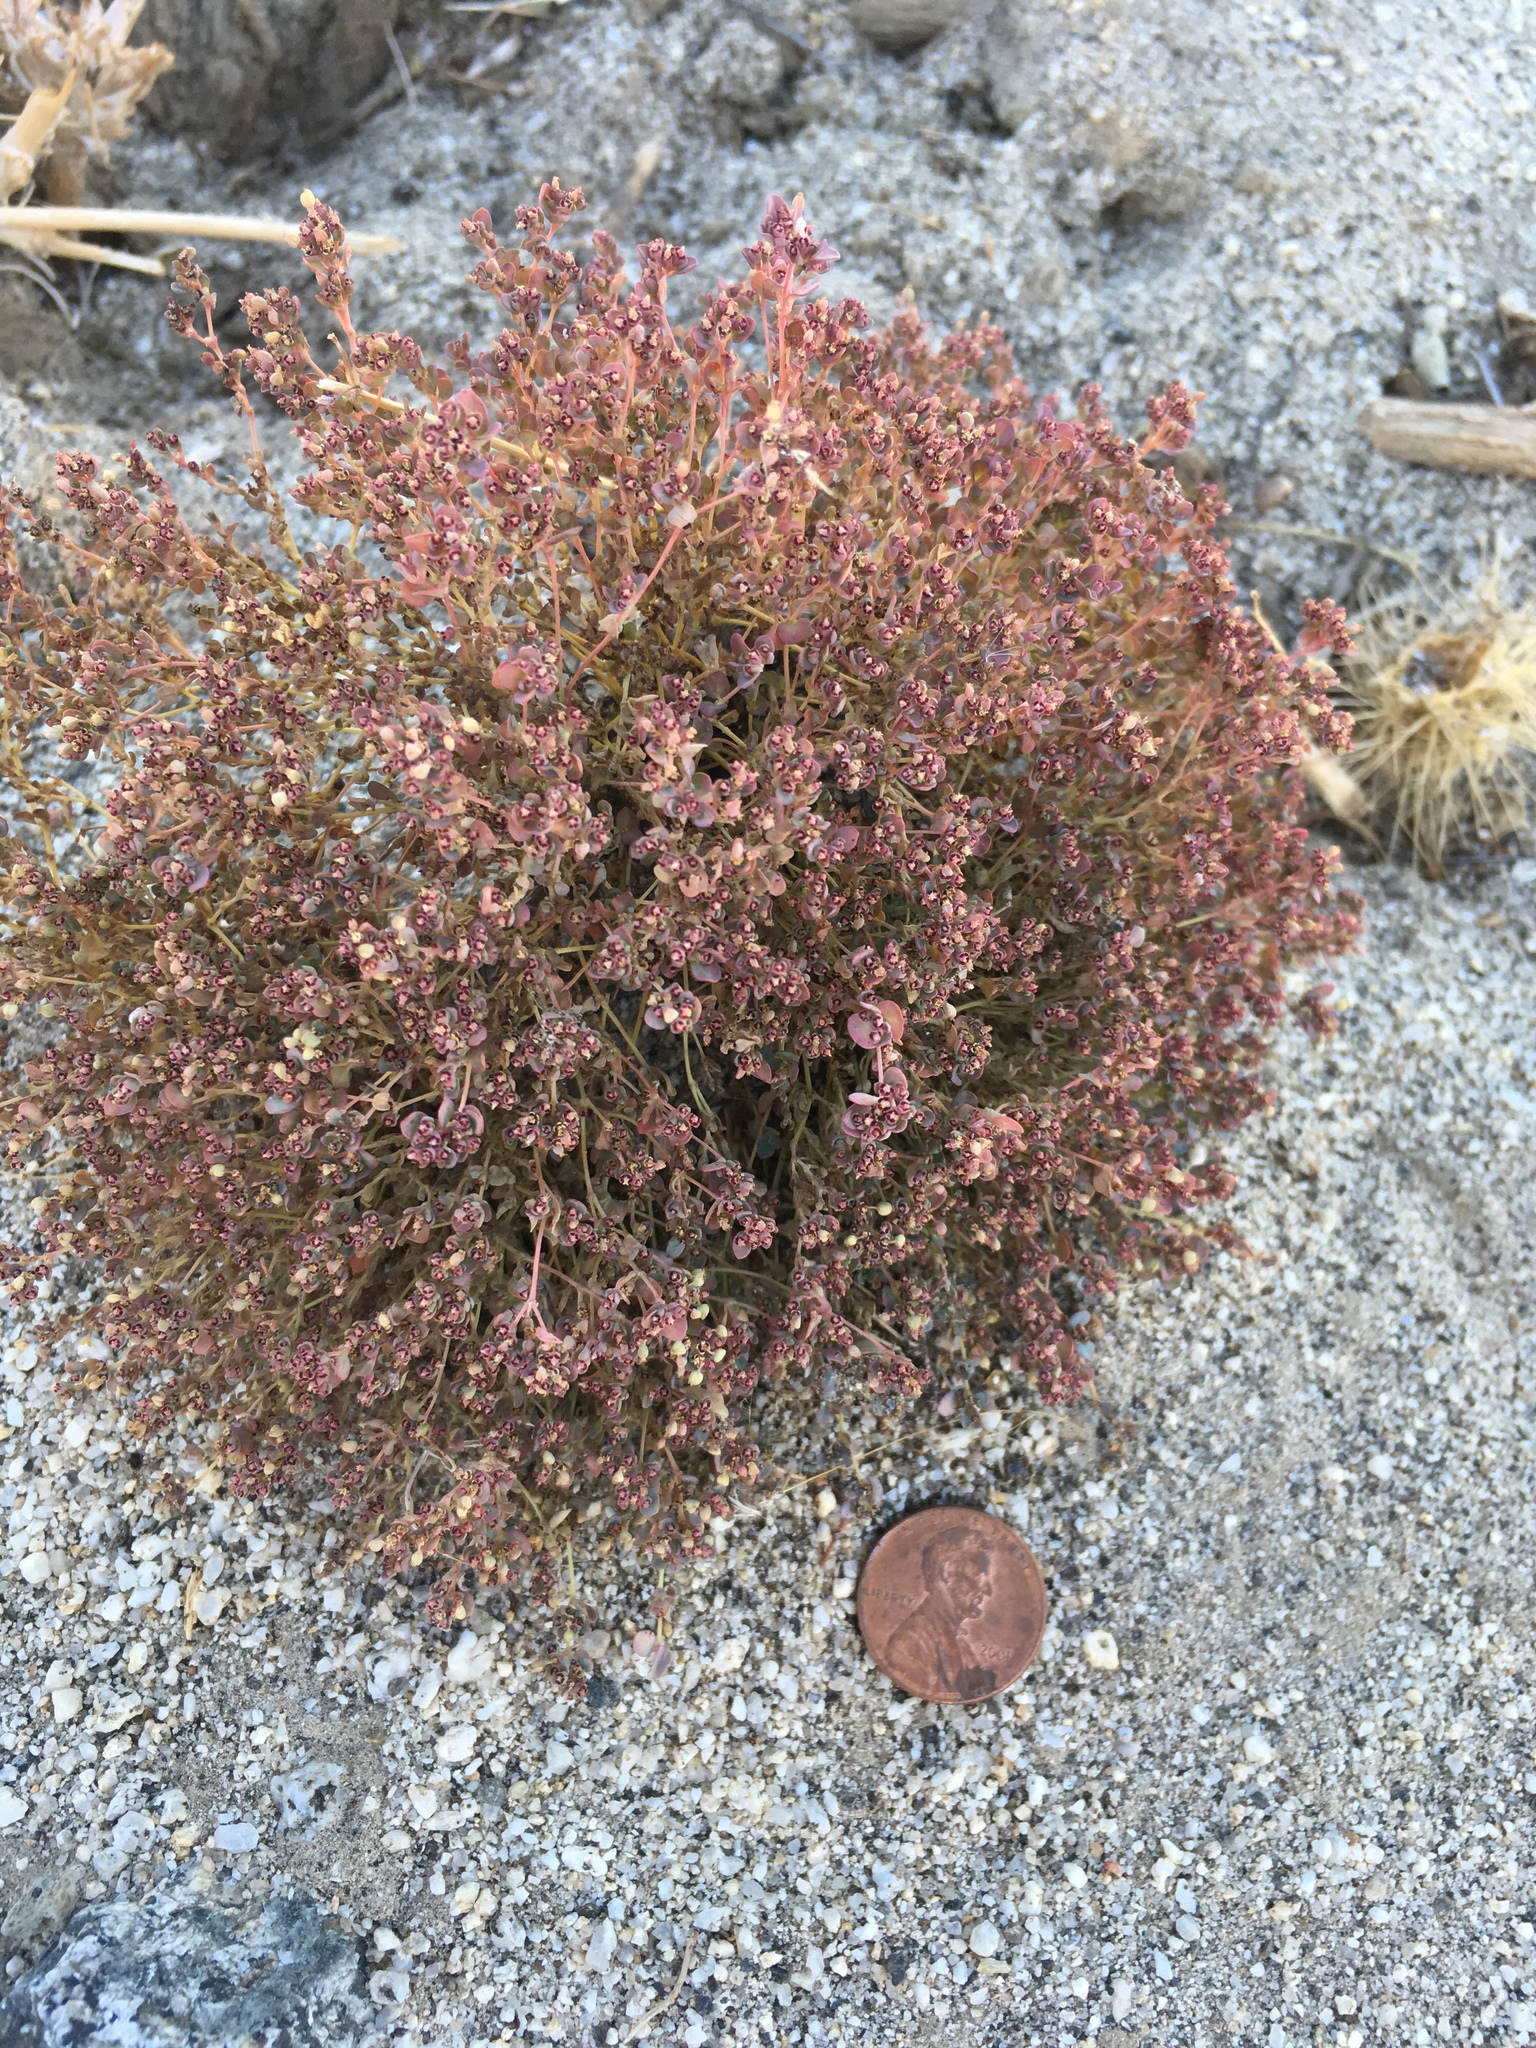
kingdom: Plantae
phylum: Tracheophyta
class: Magnoliopsida
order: Malpighiales
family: Euphorbiaceae
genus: Euphorbia
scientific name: Euphorbia polycarpa
